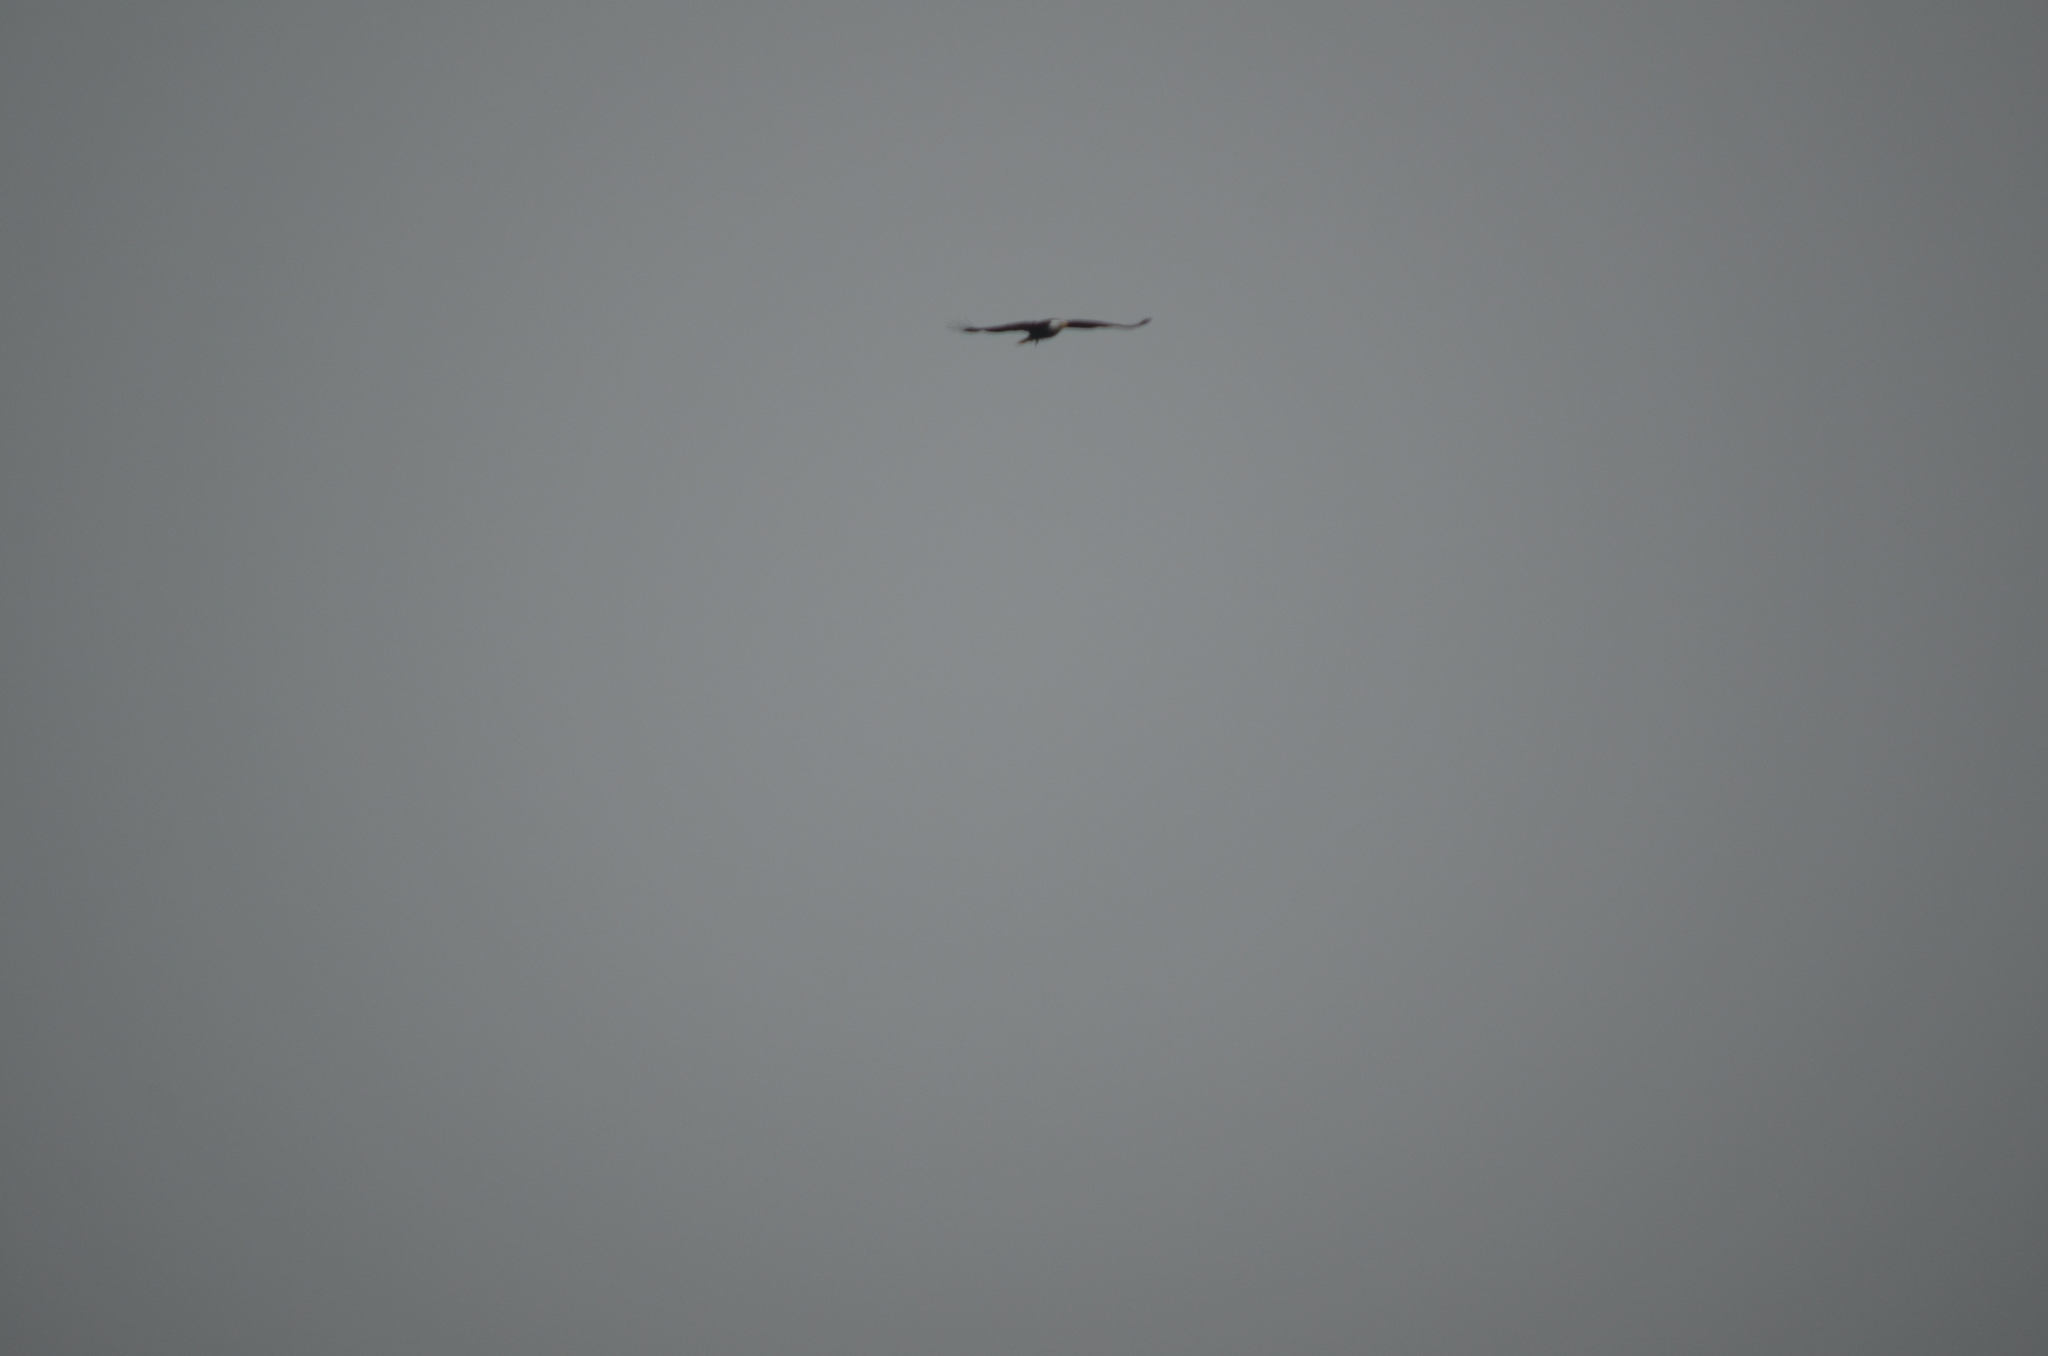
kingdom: Animalia
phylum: Chordata
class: Aves
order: Accipitriformes
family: Accipitridae
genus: Haliaeetus
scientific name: Haliaeetus leucocephalus
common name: Bald eagle
